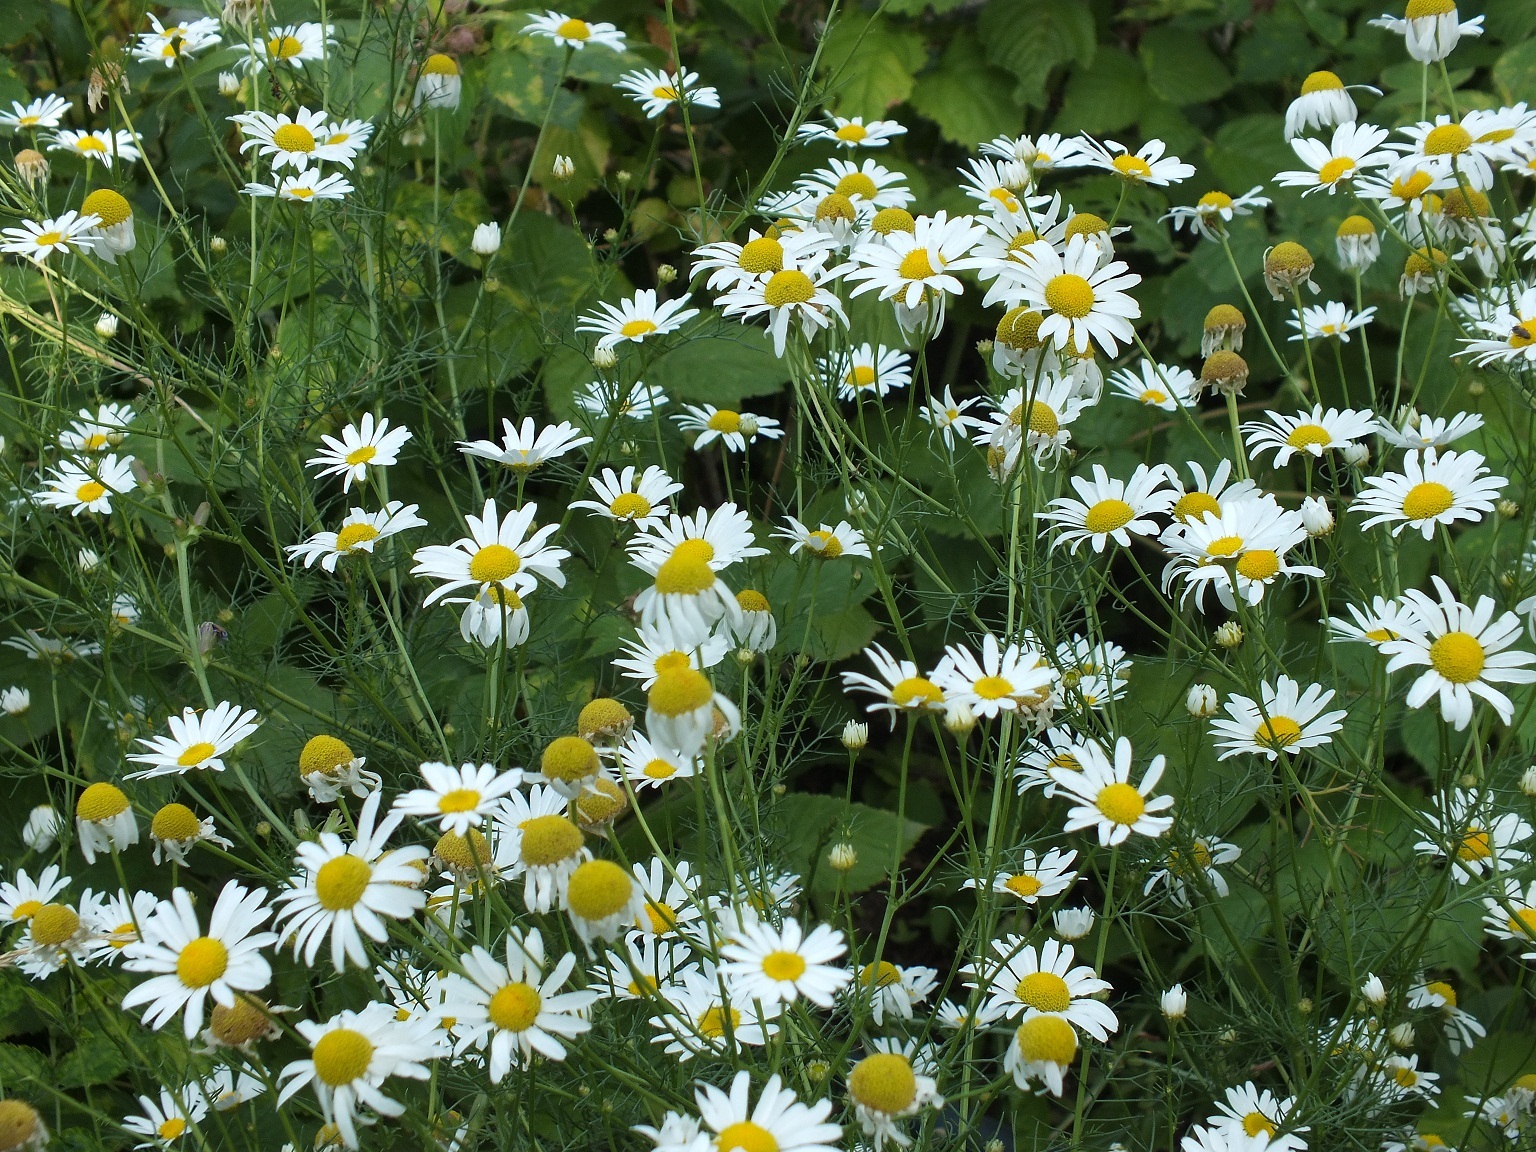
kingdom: Plantae
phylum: Tracheophyta
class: Magnoliopsida
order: Asterales
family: Asteraceae
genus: Tripleurospermum
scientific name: Tripleurospermum inodorum
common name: Scentless mayweed
